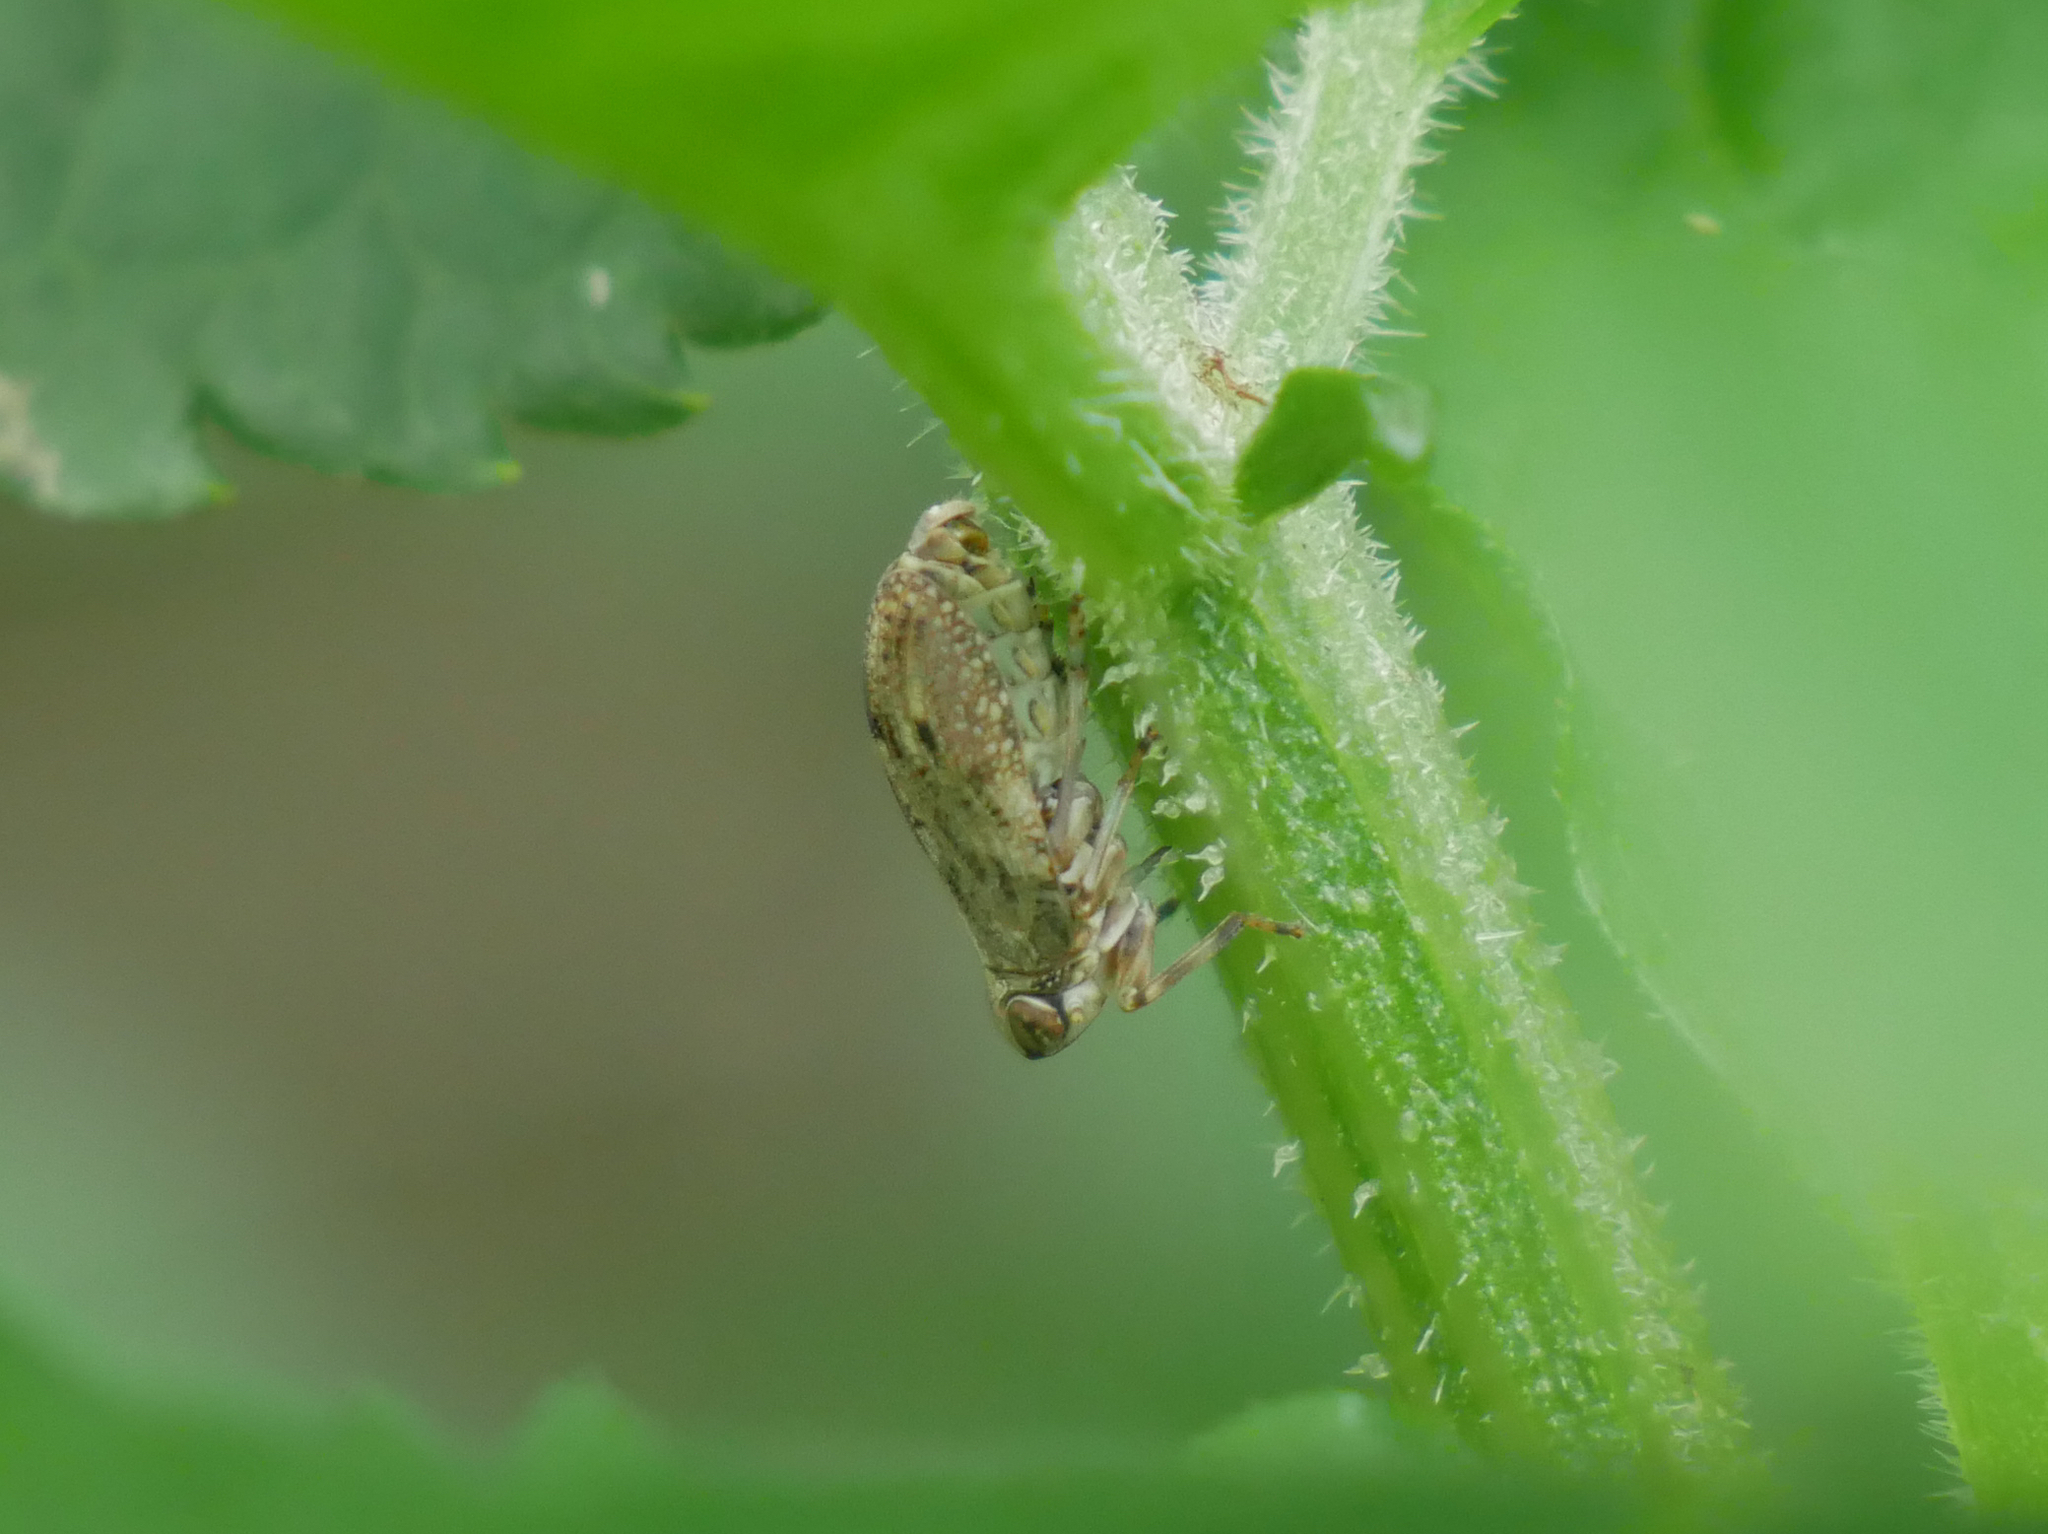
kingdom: Animalia
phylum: Arthropoda
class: Insecta
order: Hemiptera
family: Issidae
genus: Issus
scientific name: Issus coleoptratus
